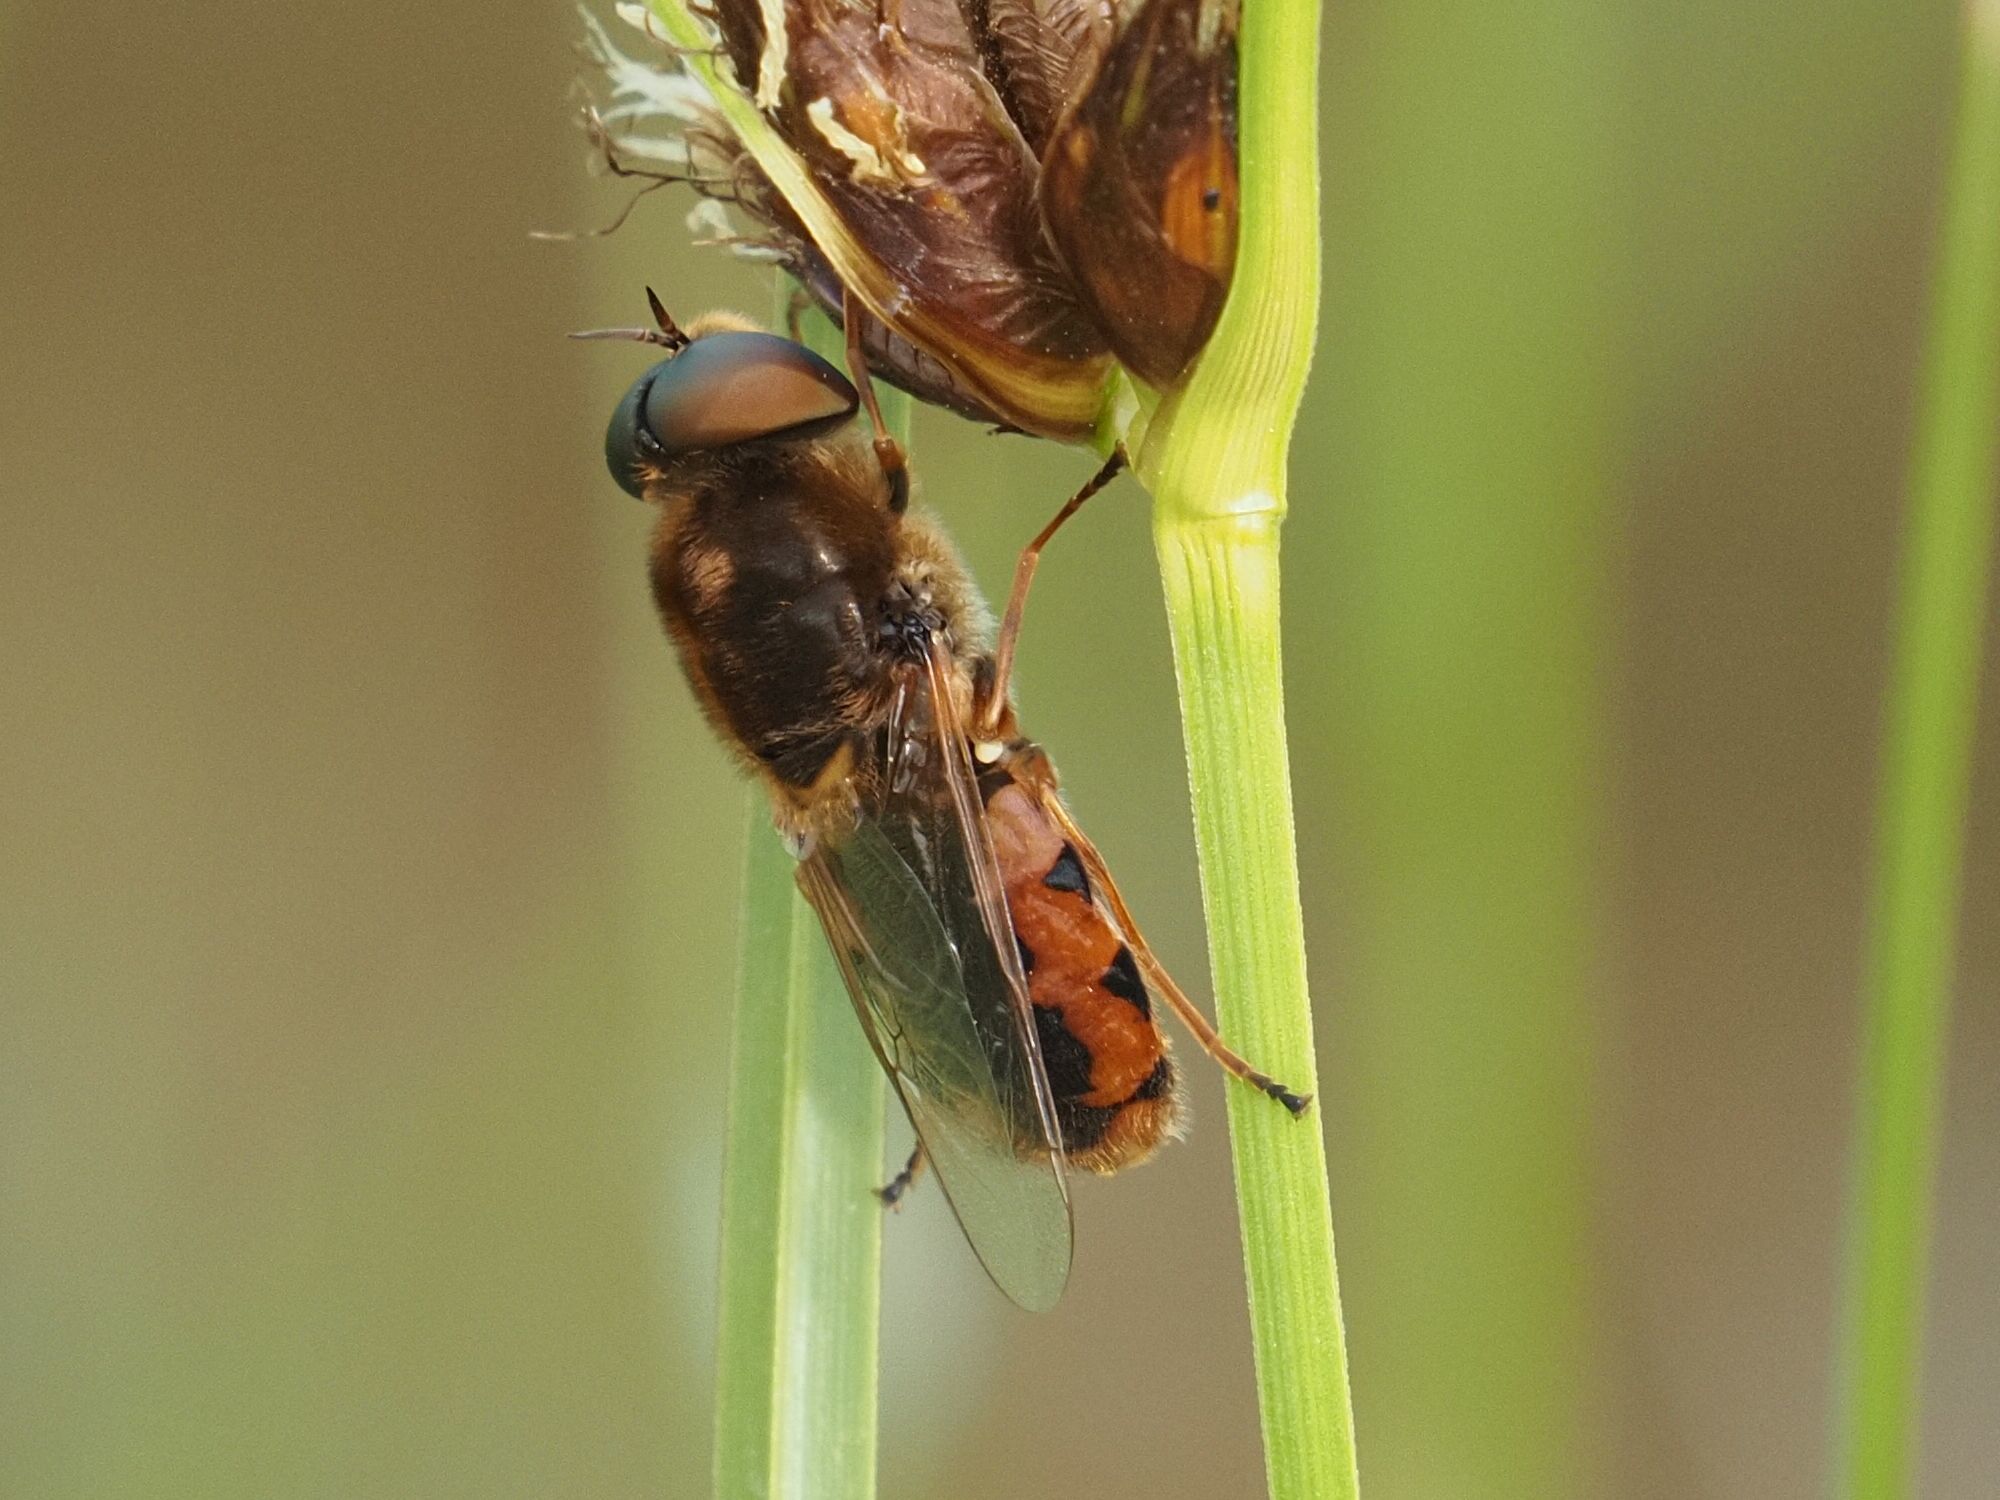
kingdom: Animalia
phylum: Arthropoda
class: Insecta
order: Diptera
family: Stratiomyidae
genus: Odontomyia
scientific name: Odontomyia ornata
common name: Ornate brigadier
